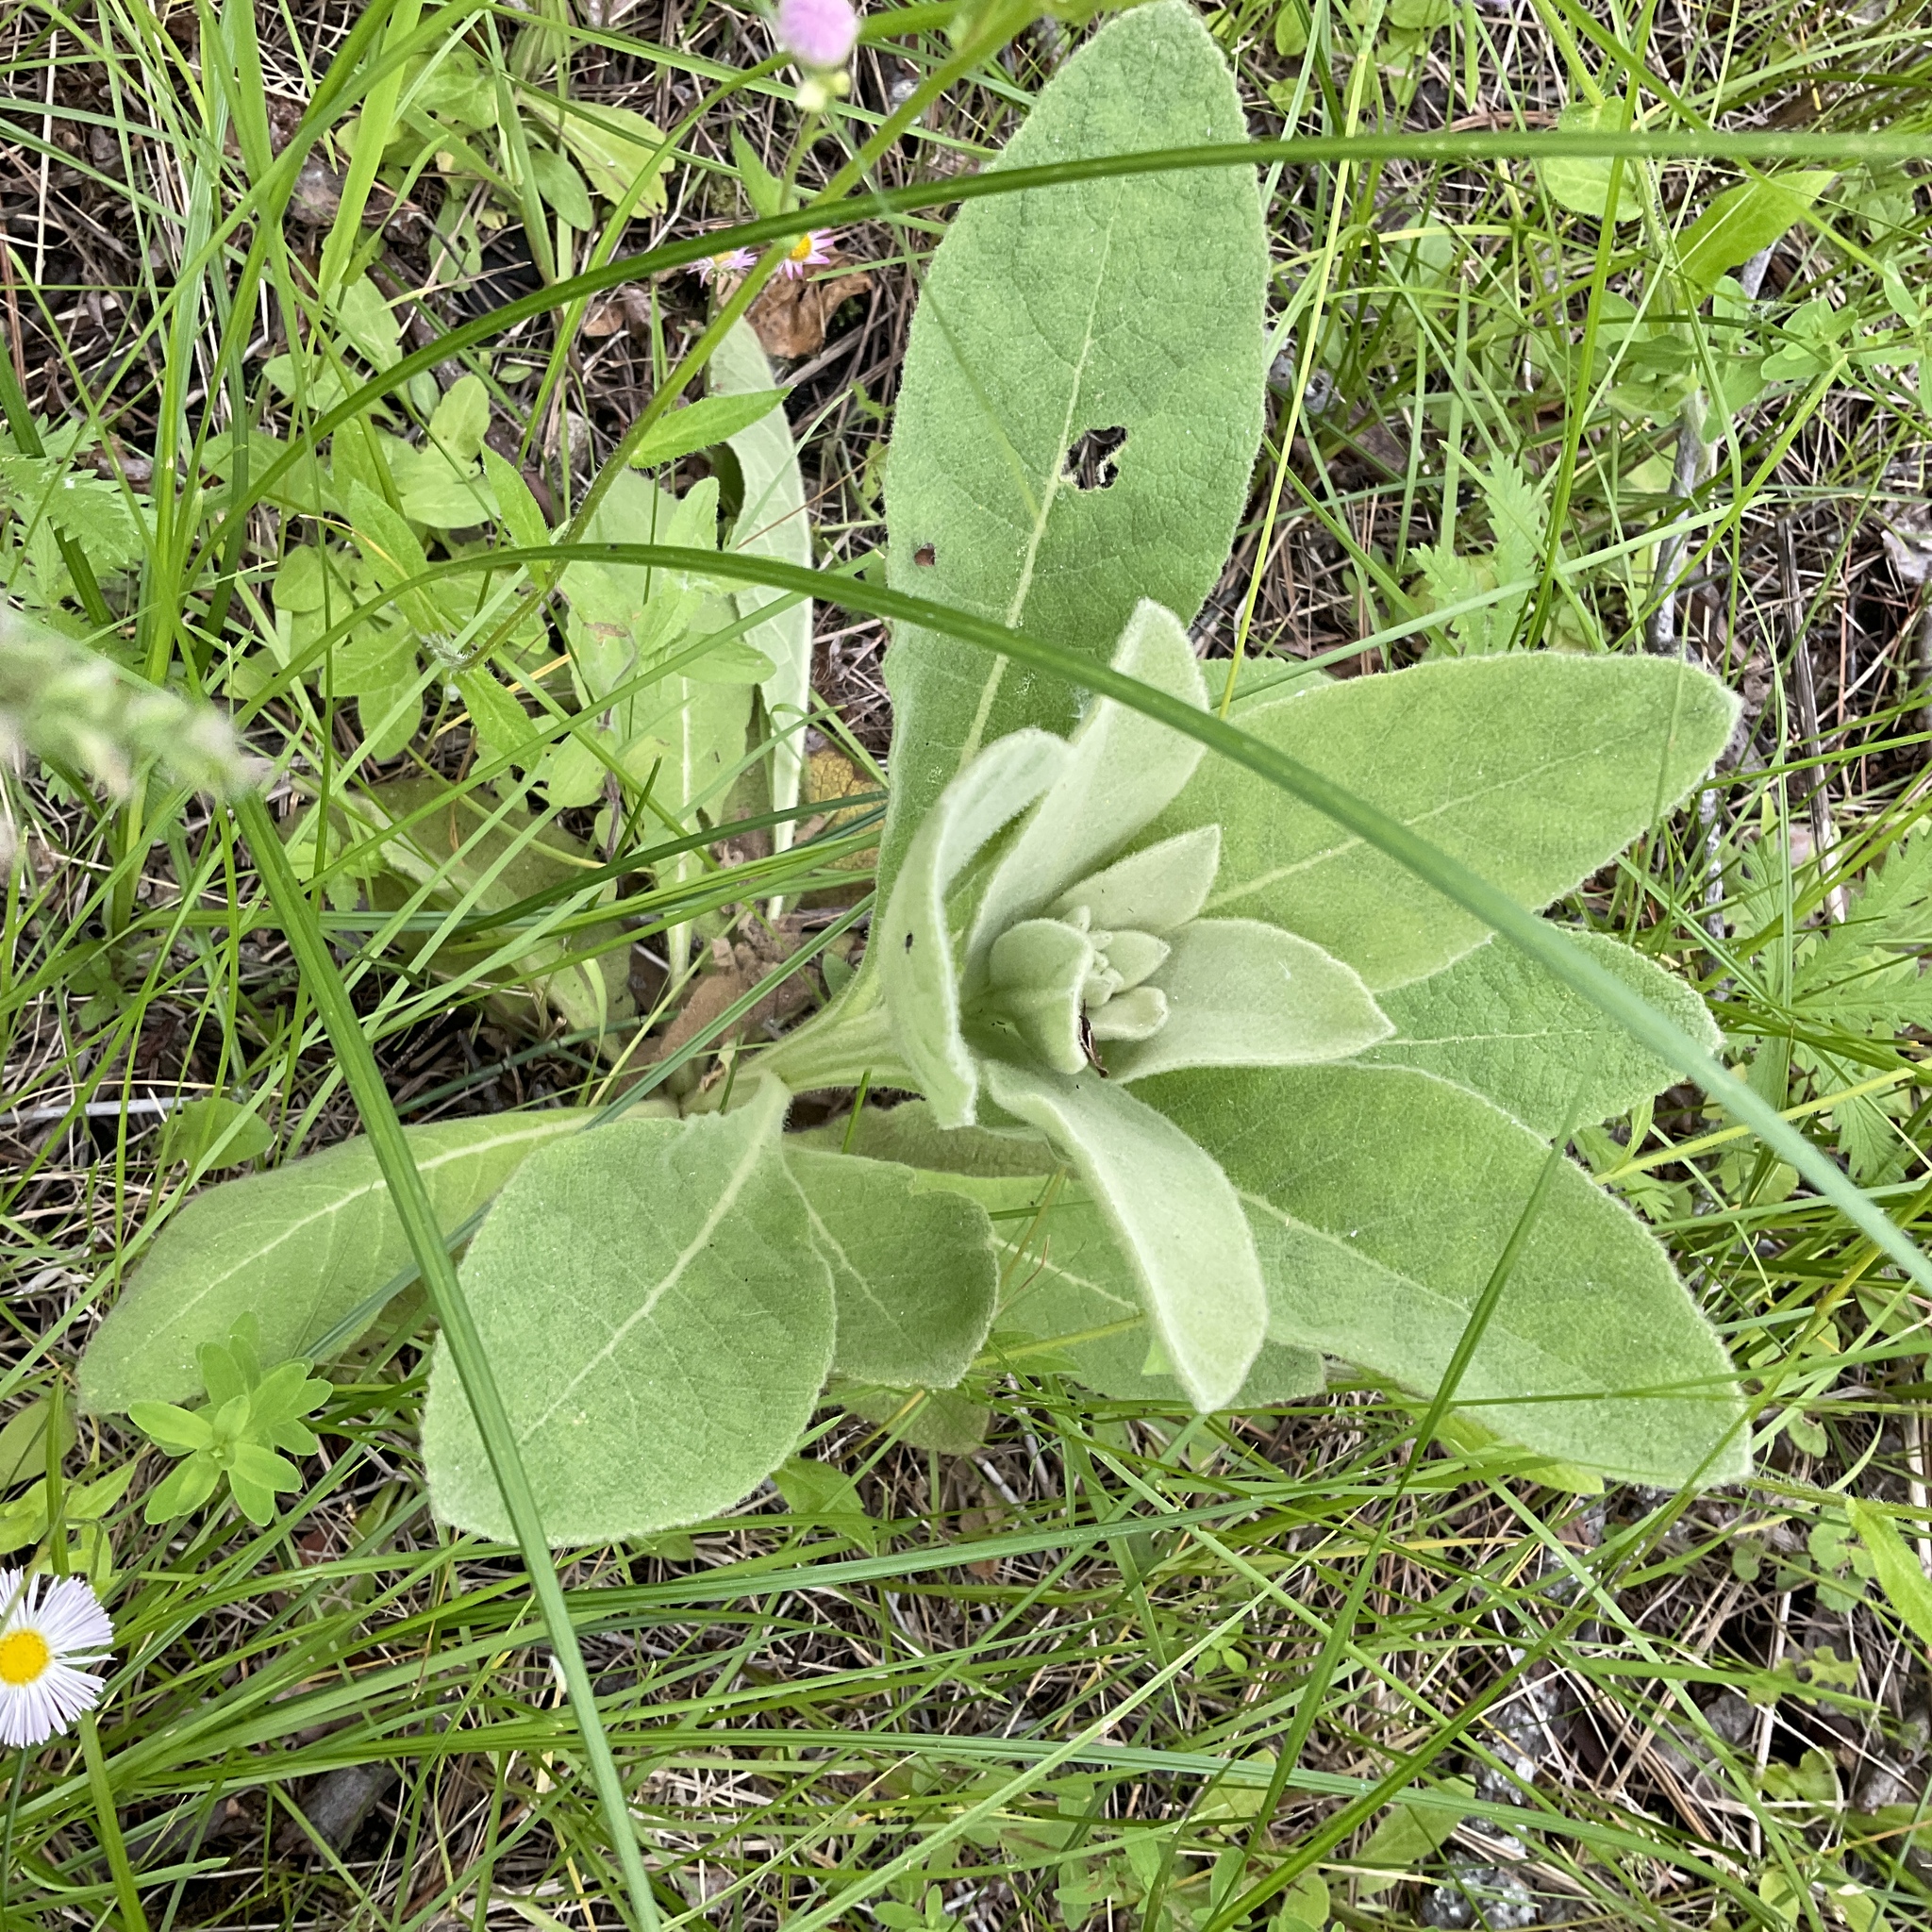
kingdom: Plantae
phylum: Tracheophyta
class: Magnoliopsida
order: Lamiales
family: Scrophulariaceae
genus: Verbascum
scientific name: Verbascum thapsus
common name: Common mullein
